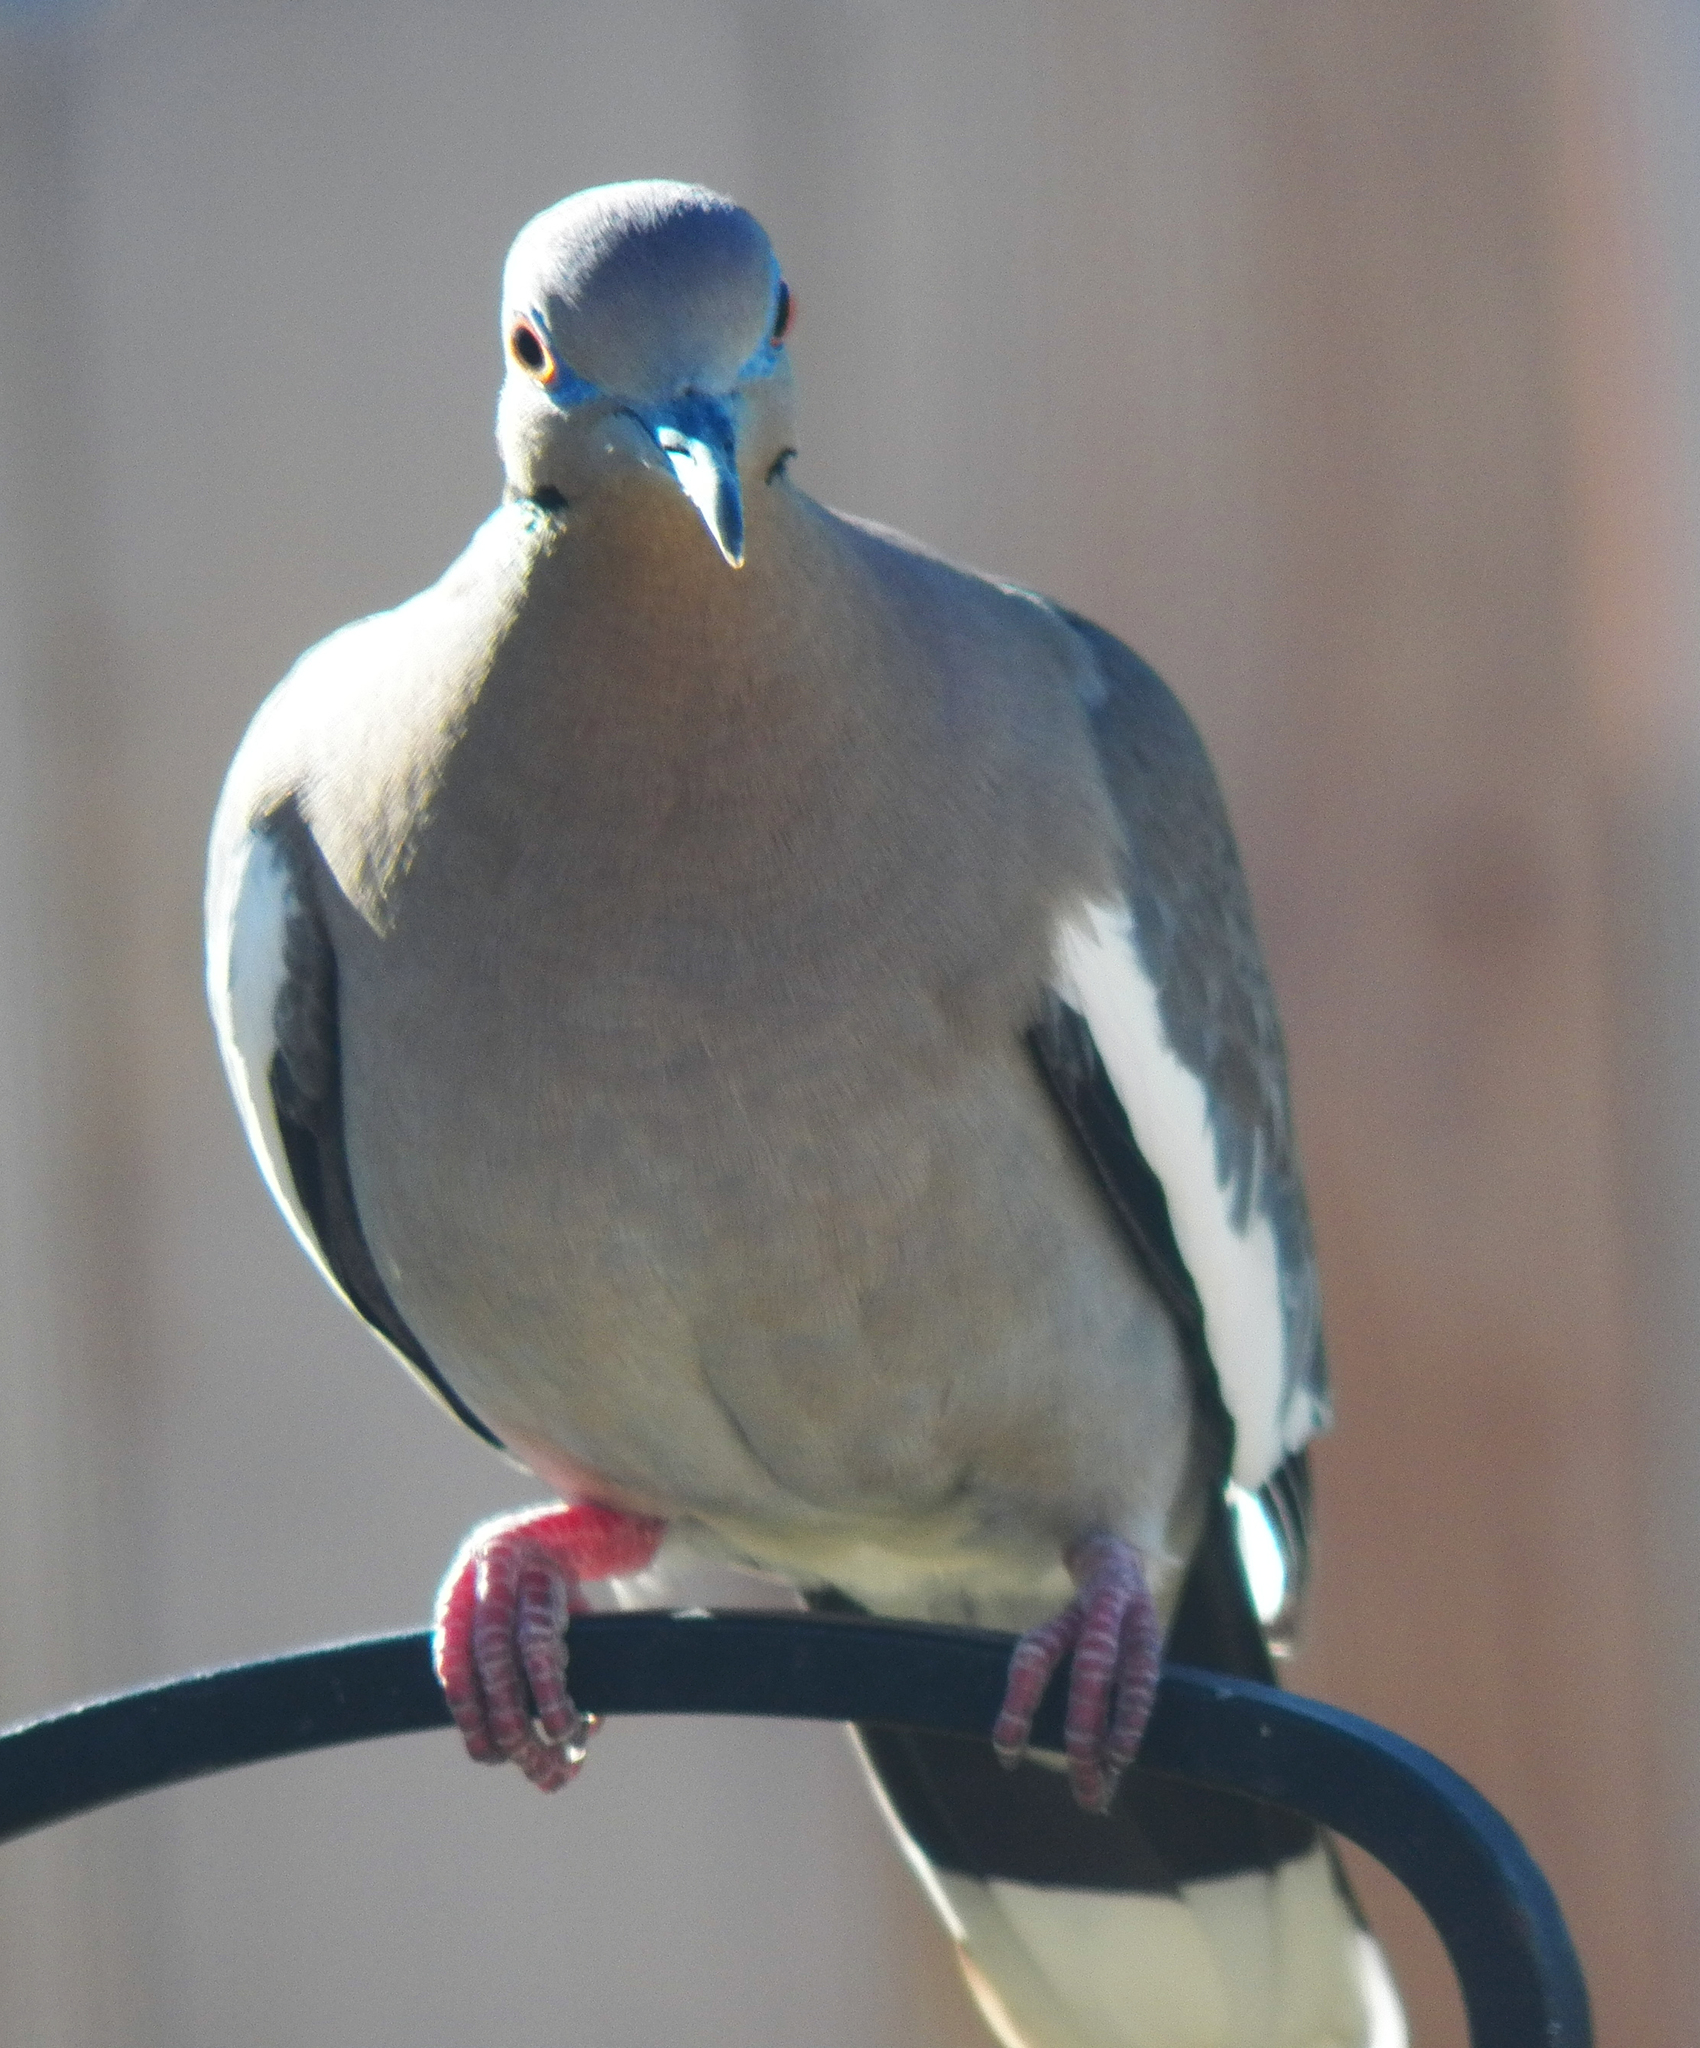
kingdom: Animalia
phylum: Chordata
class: Aves
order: Columbiformes
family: Columbidae
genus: Zenaida
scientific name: Zenaida asiatica
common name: White-winged dove
